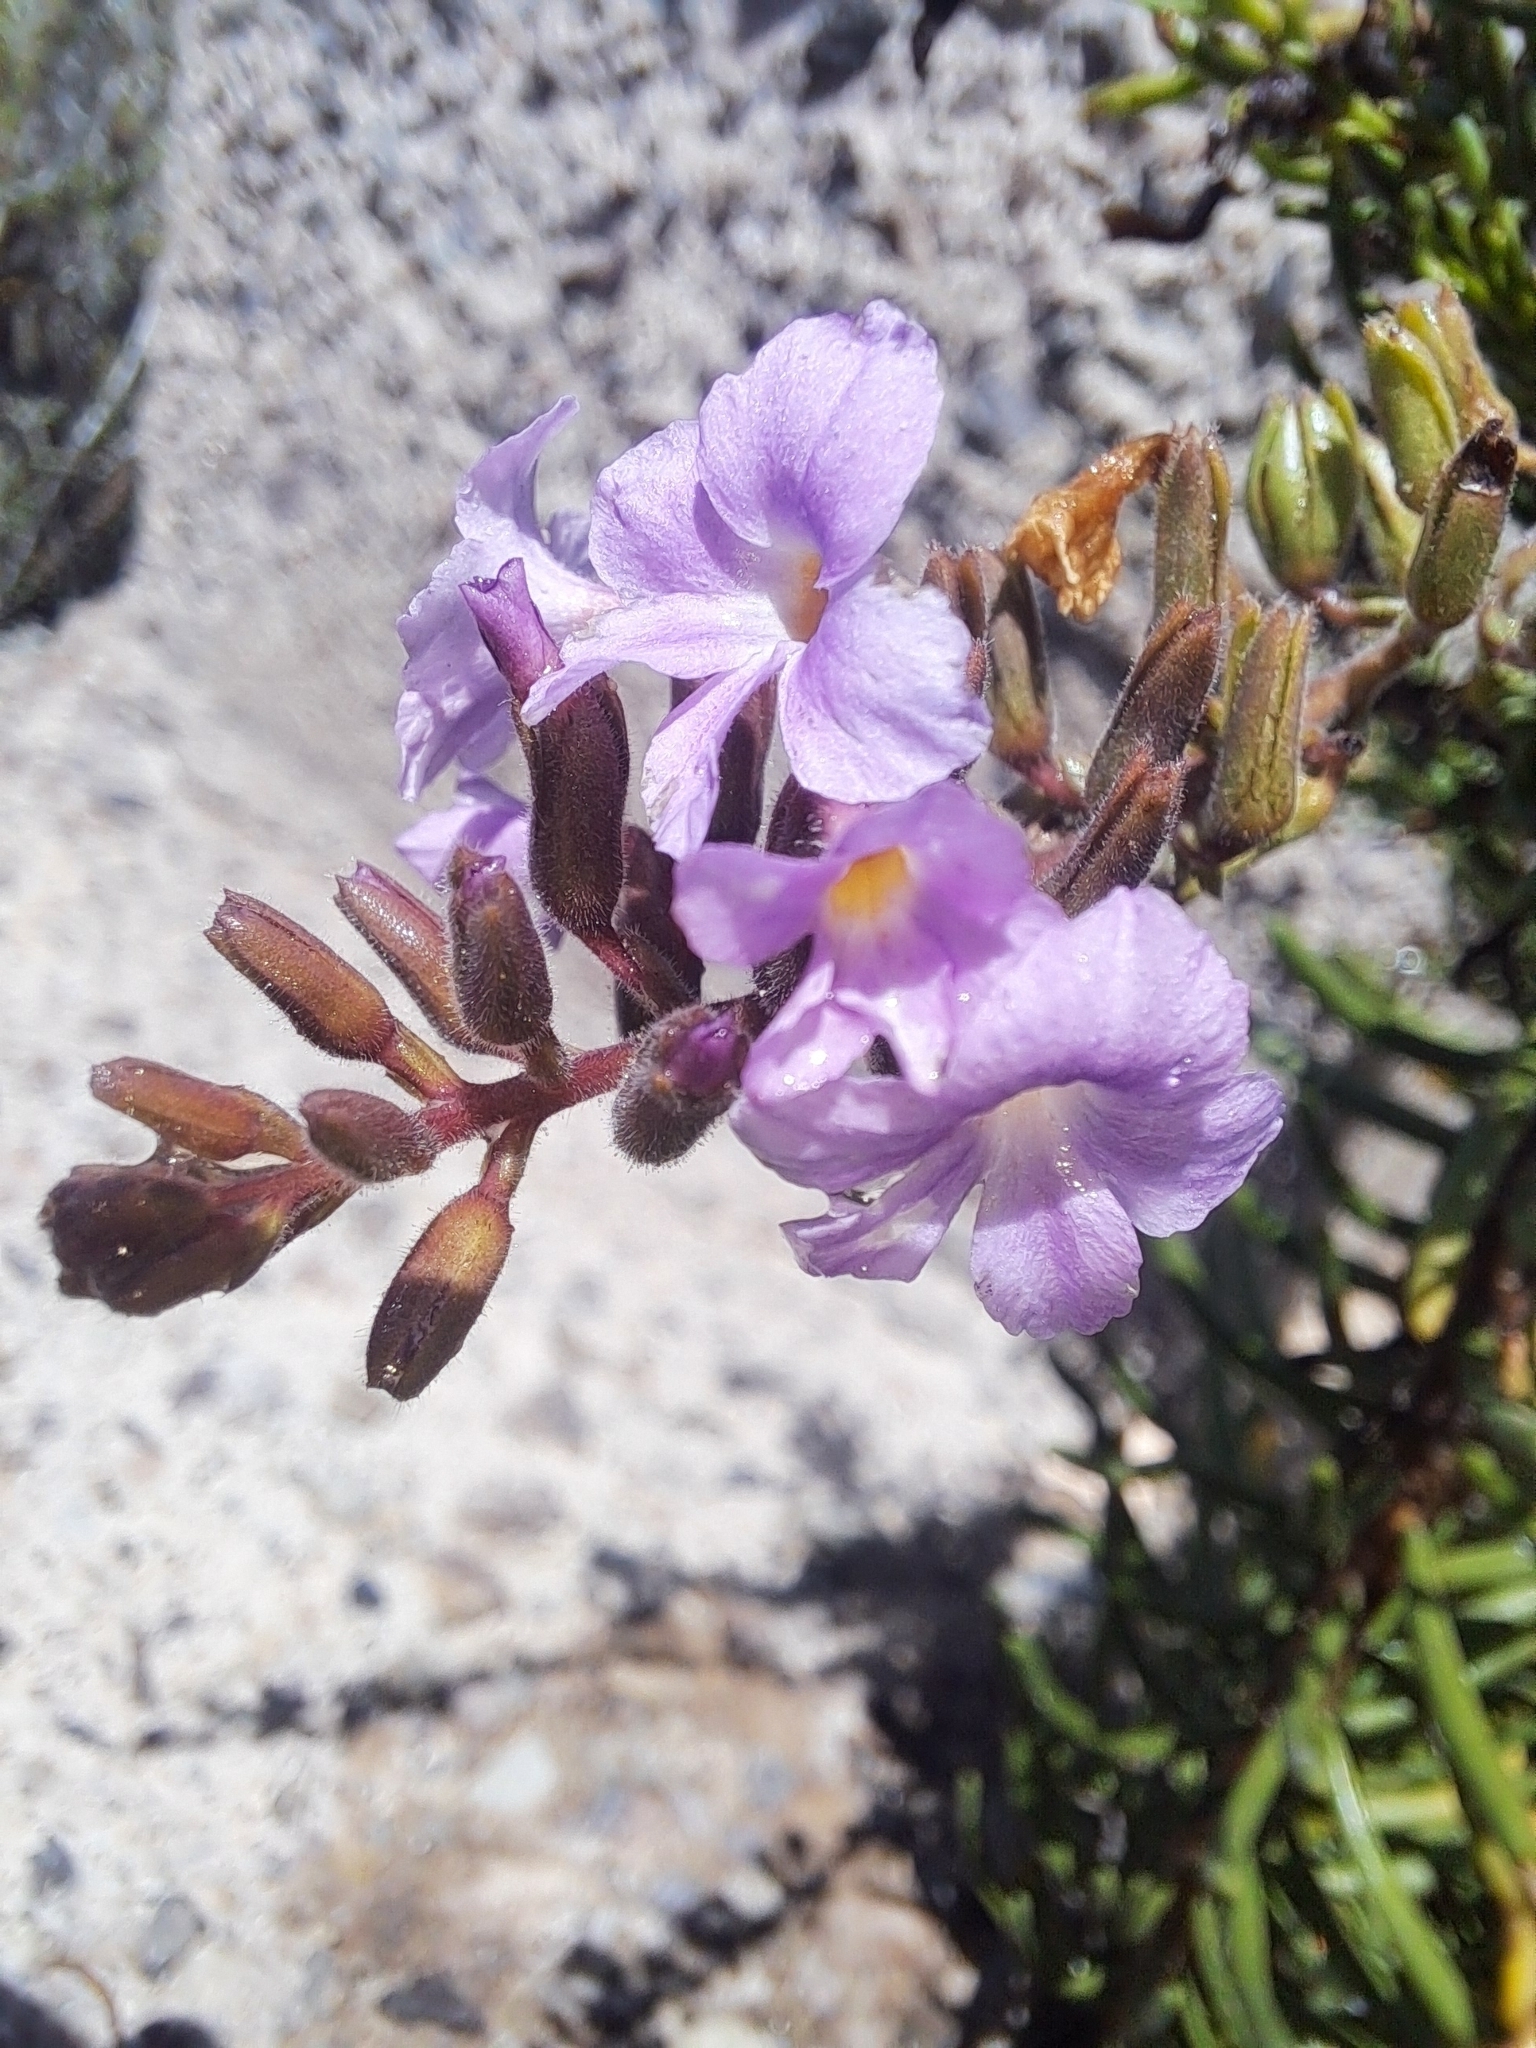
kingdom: Plantae
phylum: Tracheophyta
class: Magnoliopsida
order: Lamiales
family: Plantaginaceae
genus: Campylanthus
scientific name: Campylanthus salsoloides
